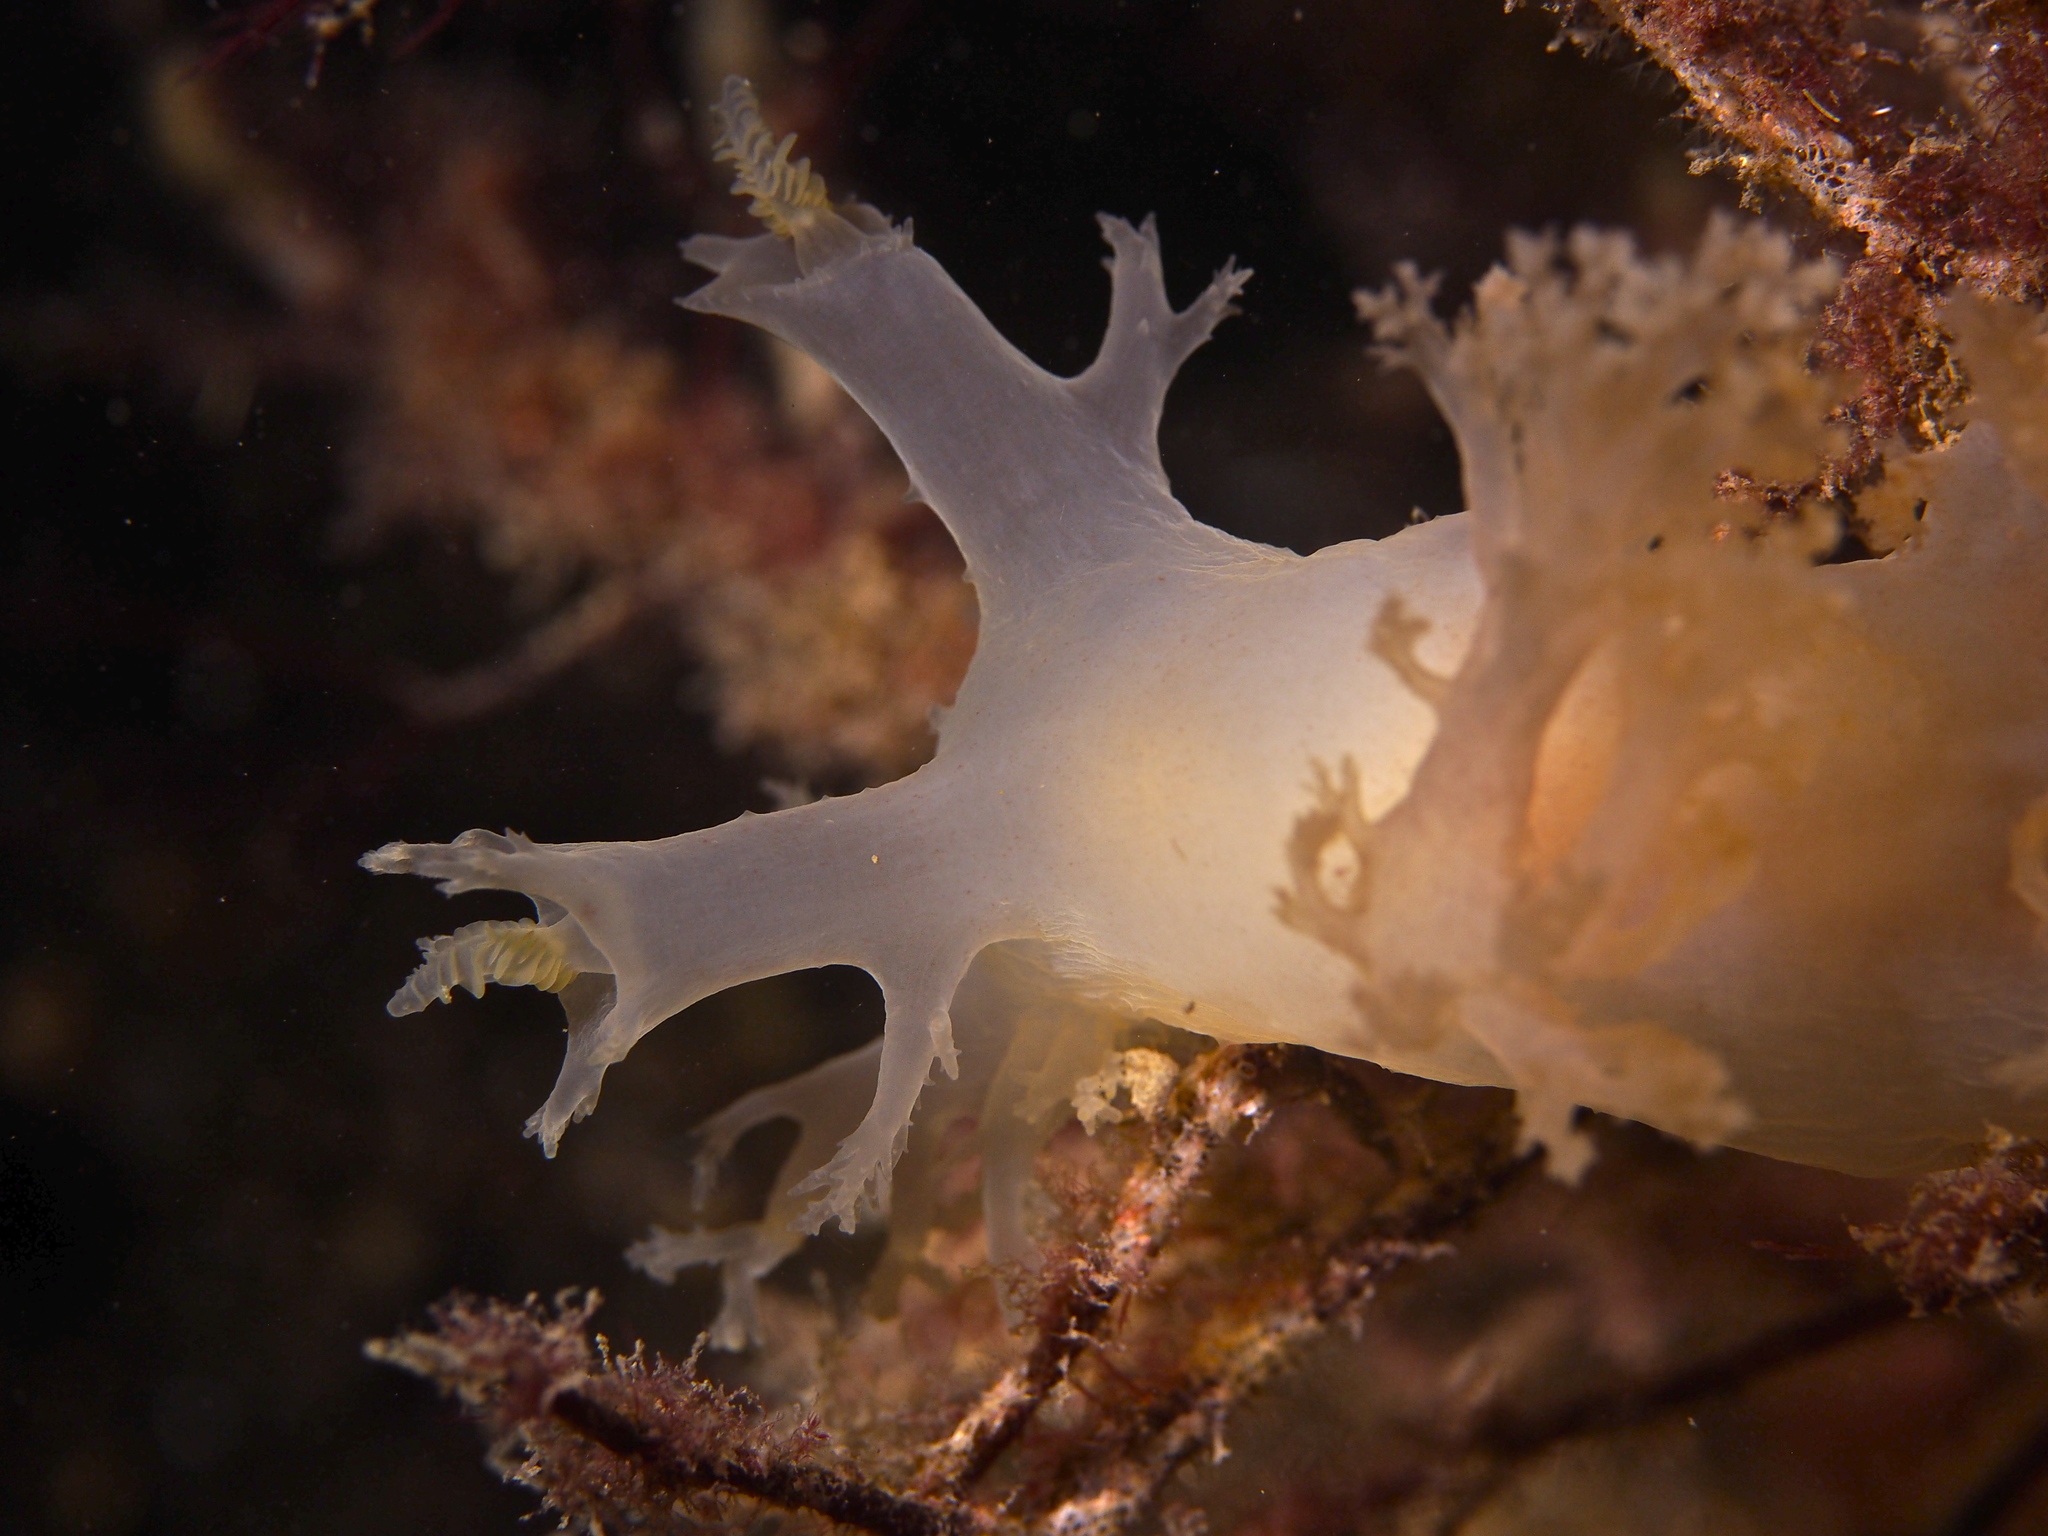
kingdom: Animalia
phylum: Mollusca
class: Gastropoda
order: Nudibranchia
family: Dendronotidae
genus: Dendronotus
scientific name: Dendronotus lacteus
